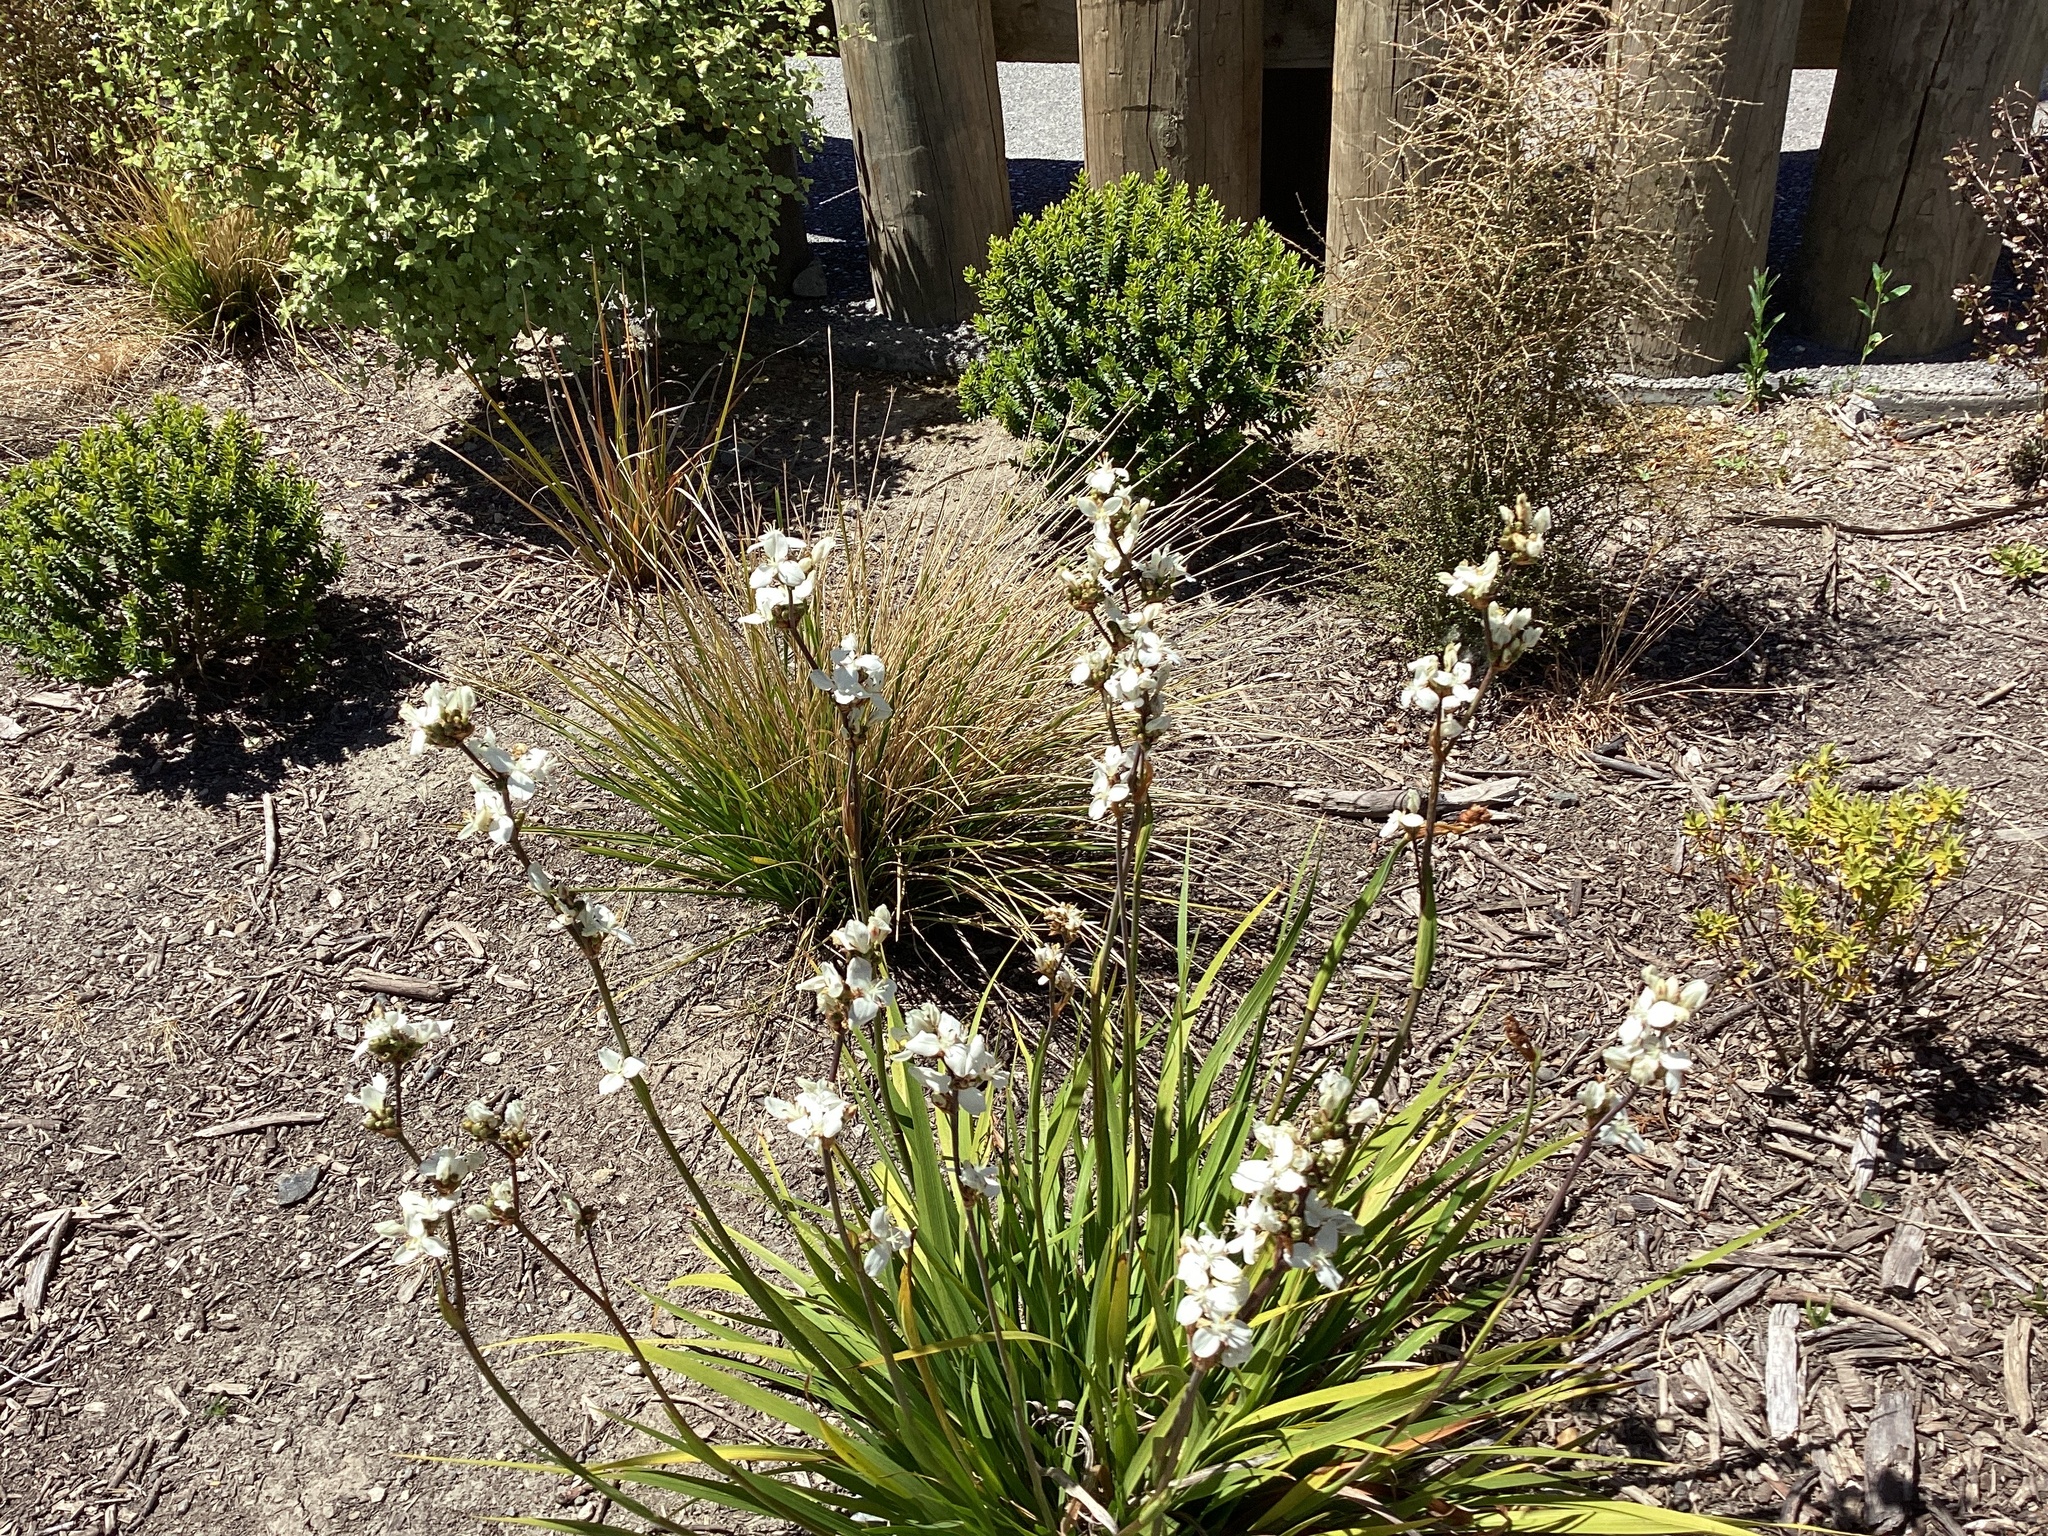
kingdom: Plantae
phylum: Tracheophyta
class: Liliopsida
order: Asparagales
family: Iridaceae
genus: Libertia
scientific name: Libertia grandiflora
